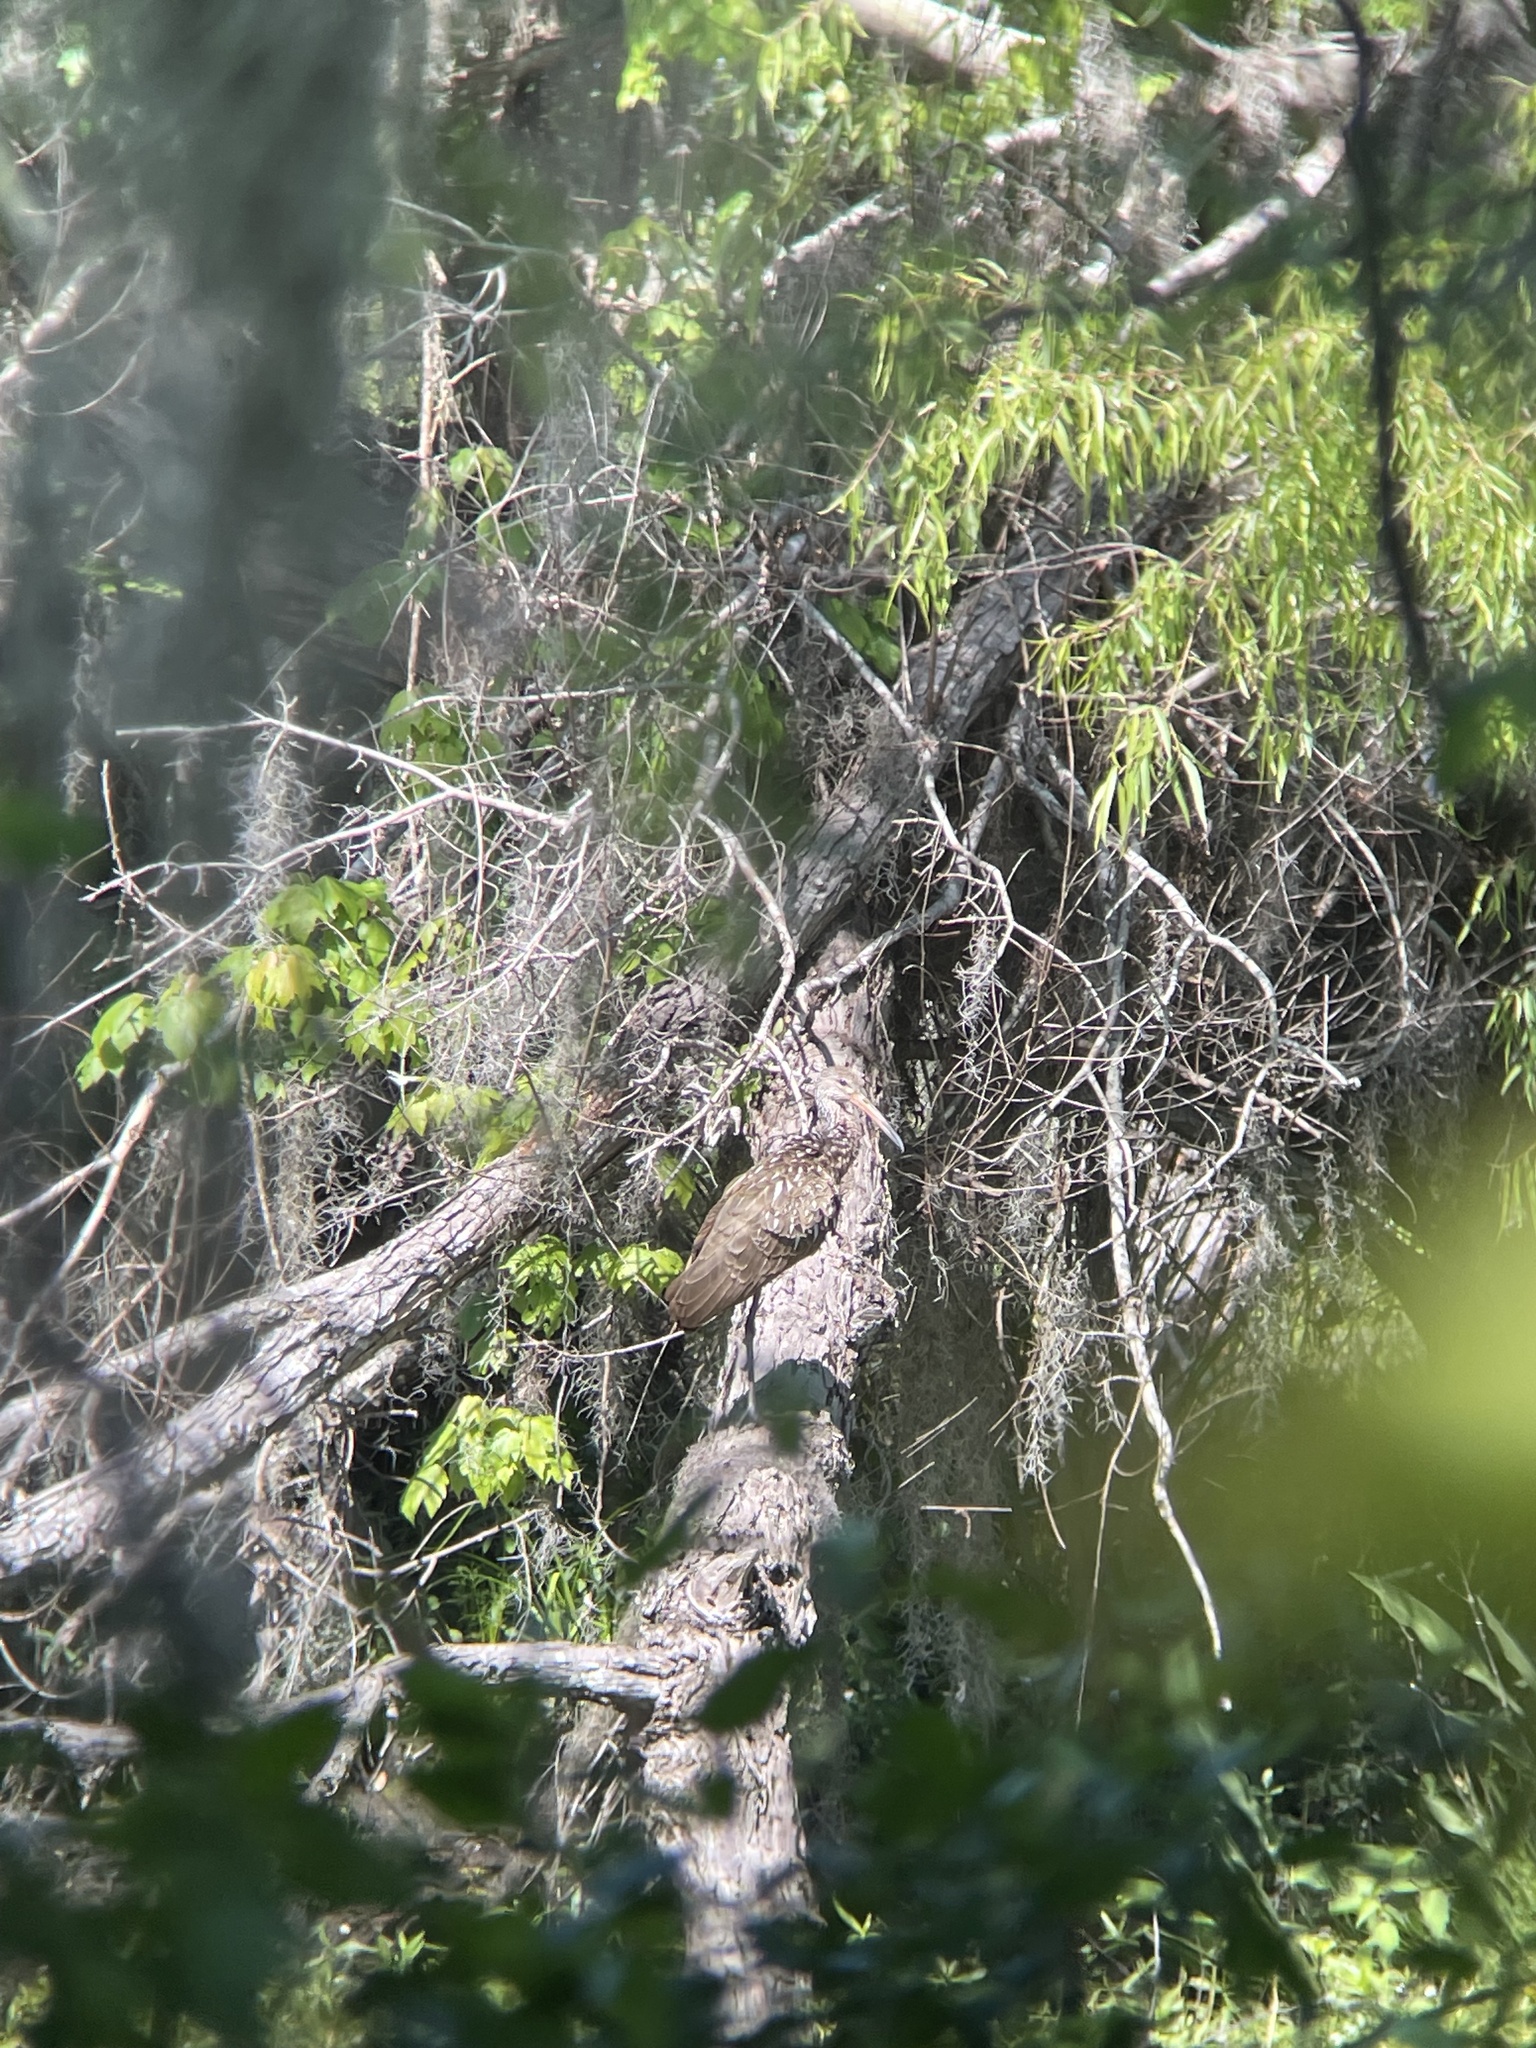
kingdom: Animalia
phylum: Chordata
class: Aves
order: Gruiformes
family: Aramidae
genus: Aramus
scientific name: Aramus guarauna
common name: Limpkin
